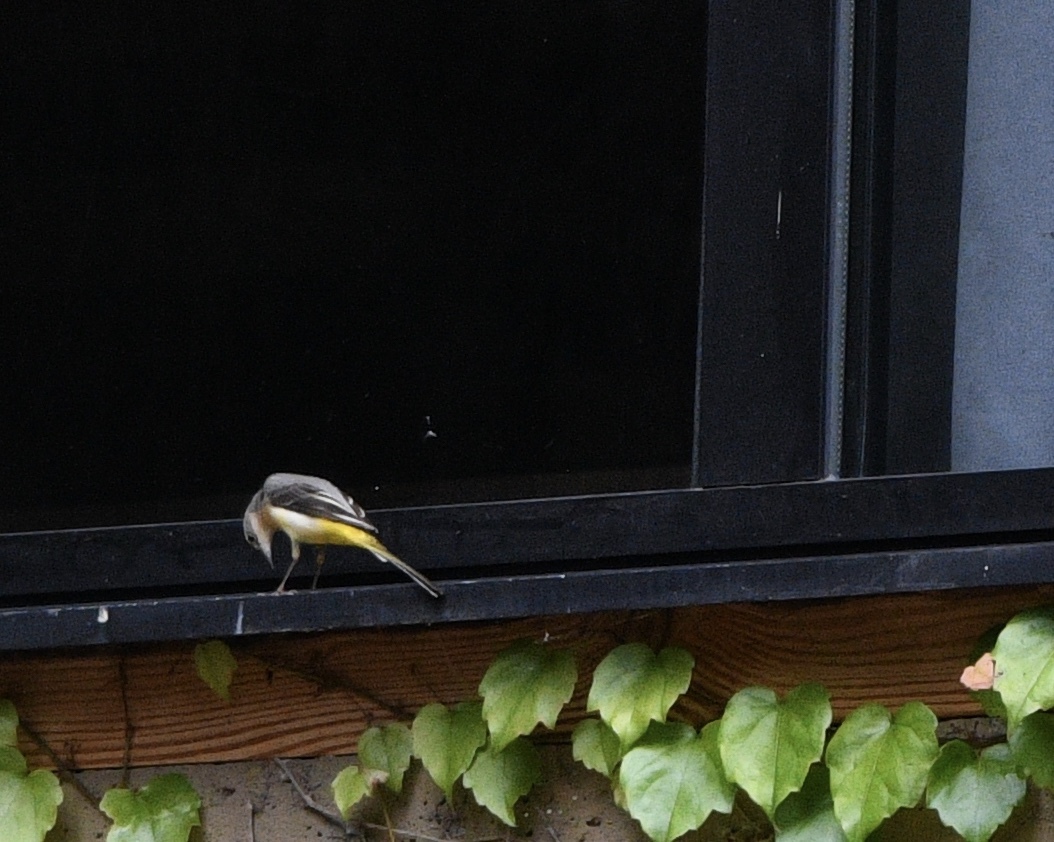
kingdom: Animalia
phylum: Chordata
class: Aves
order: Passeriformes
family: Motacillidae
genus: Motacilla
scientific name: Motacilla cinerea
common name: Grey wagtail
